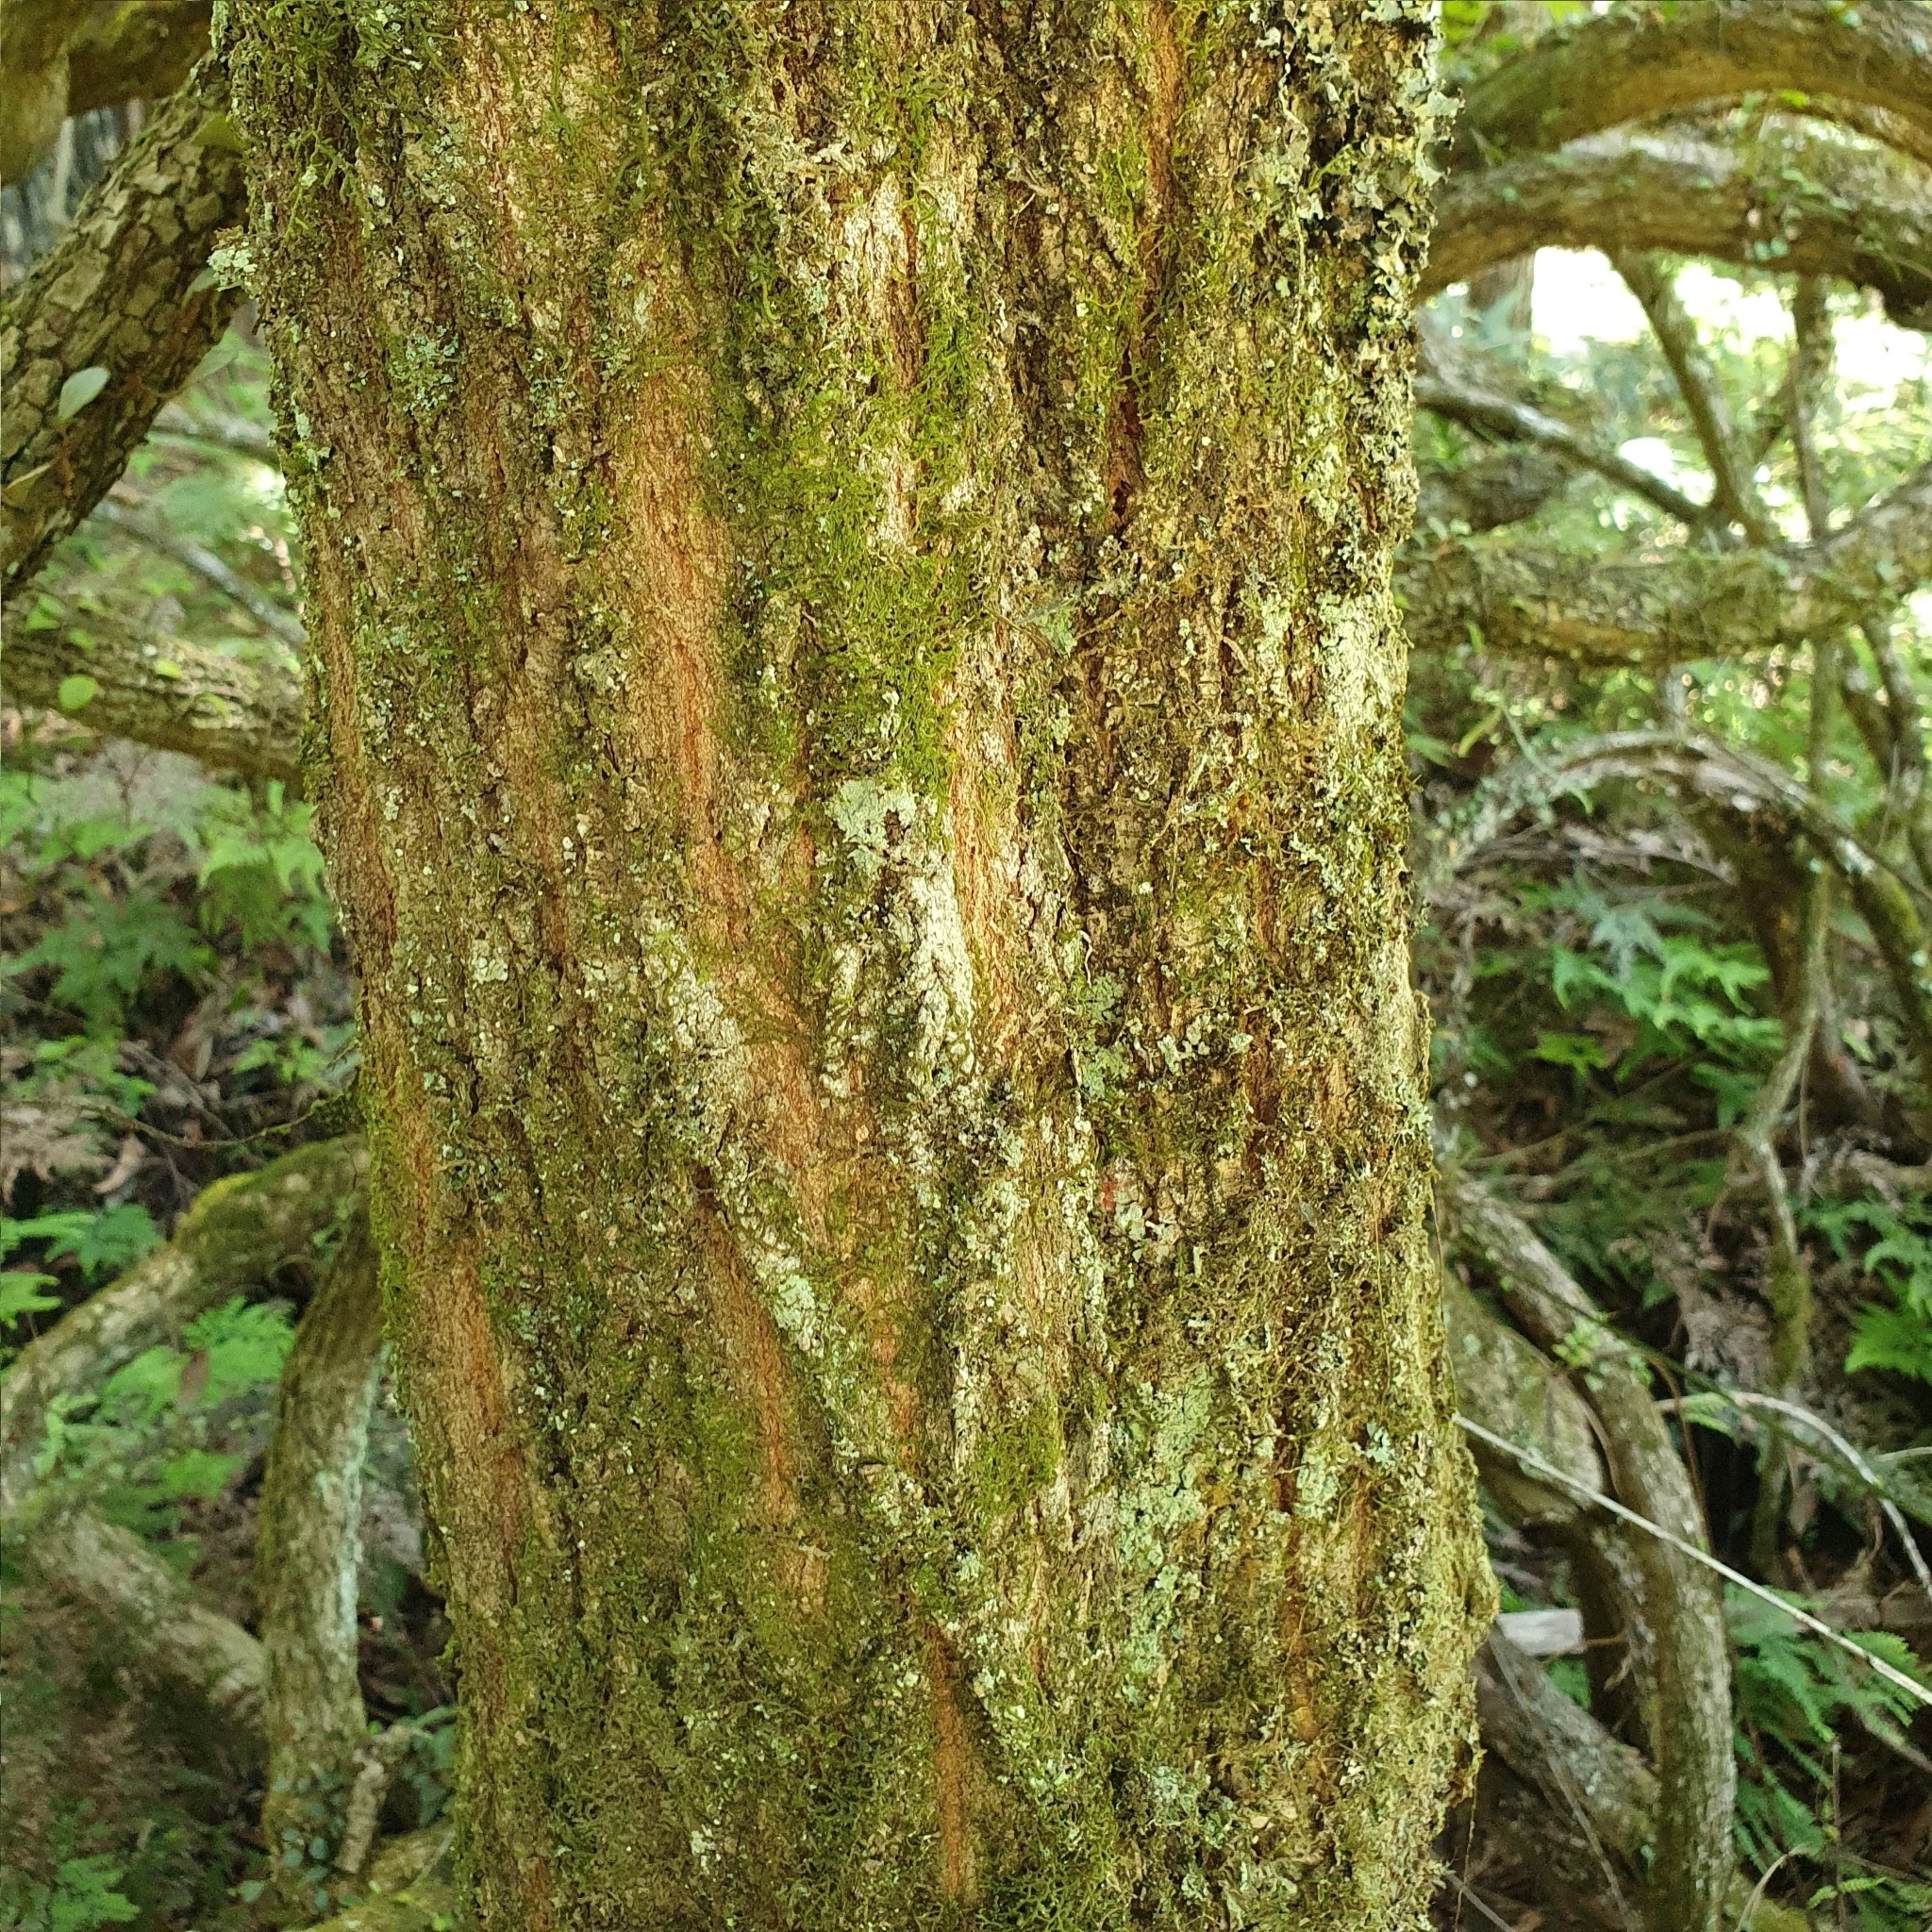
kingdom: Plantae
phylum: Tracheophyta
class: Magnoliopsida
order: Myrtales
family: Myrtaceae
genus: Backhousia
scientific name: Backhousia myrtifolia
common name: Carrol
